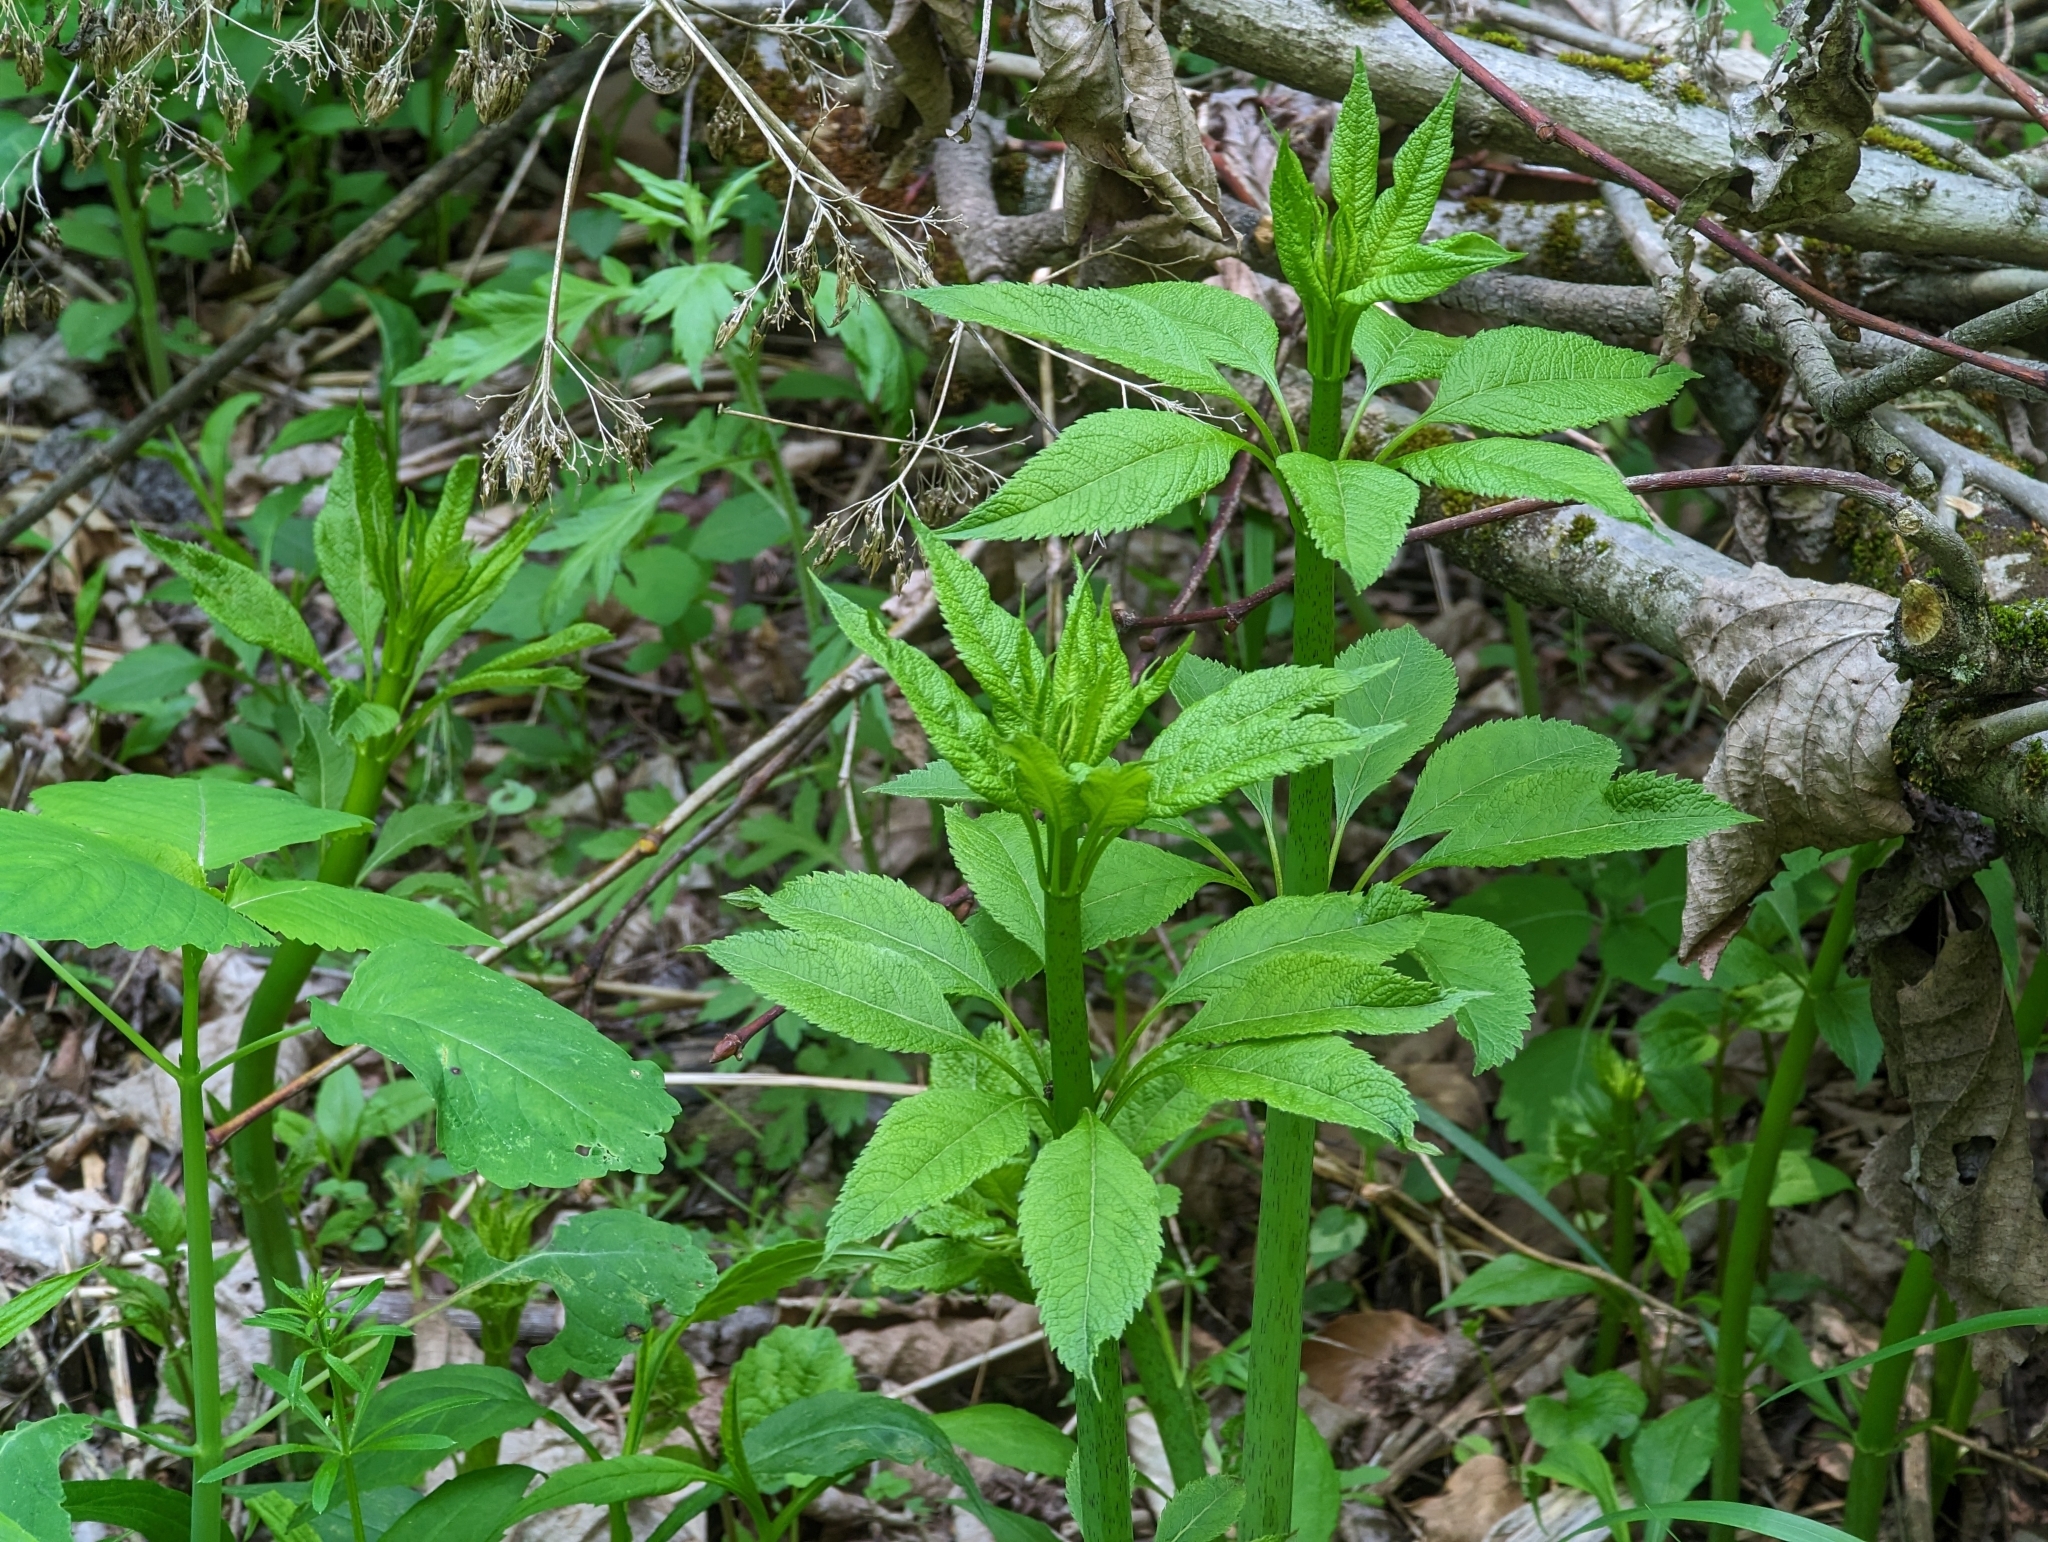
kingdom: Plantae
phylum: Tracheophyta
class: Magnoliopsida
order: Asterales
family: Asteraceae
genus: Eutrochium
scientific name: Eutrochium fistulosum
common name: Trumpetweed
